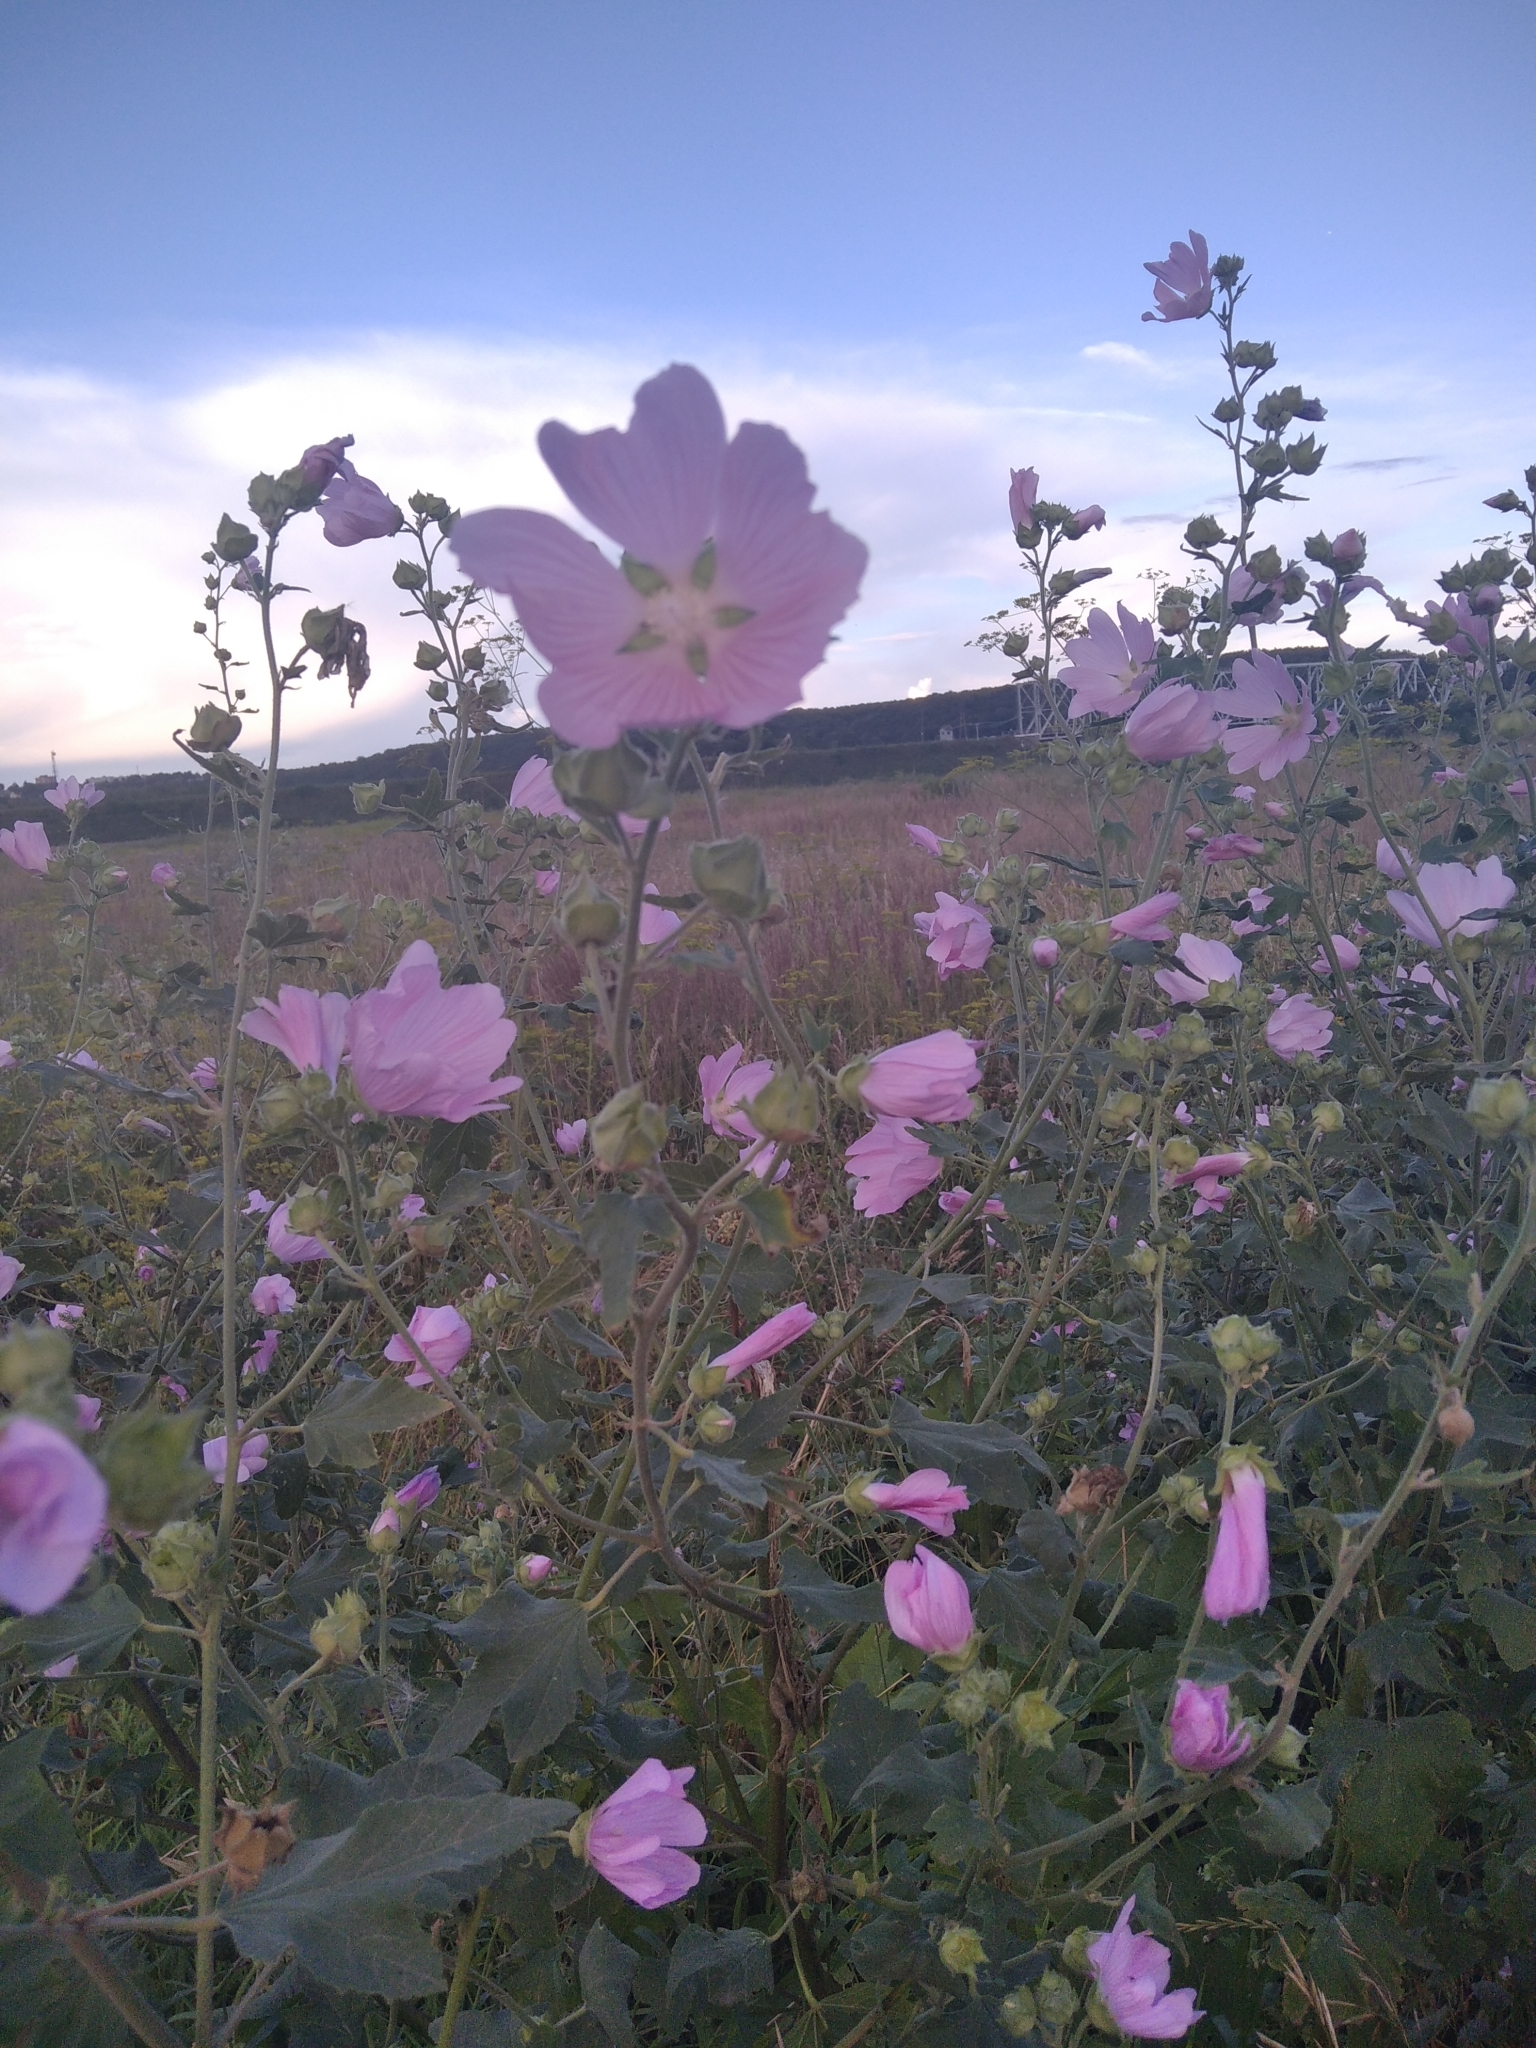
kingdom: Plantae
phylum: Tracheophyta
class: Magnoliopsida
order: Malvales
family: Malvaceae
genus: Malva
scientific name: Malva thuringiaca
